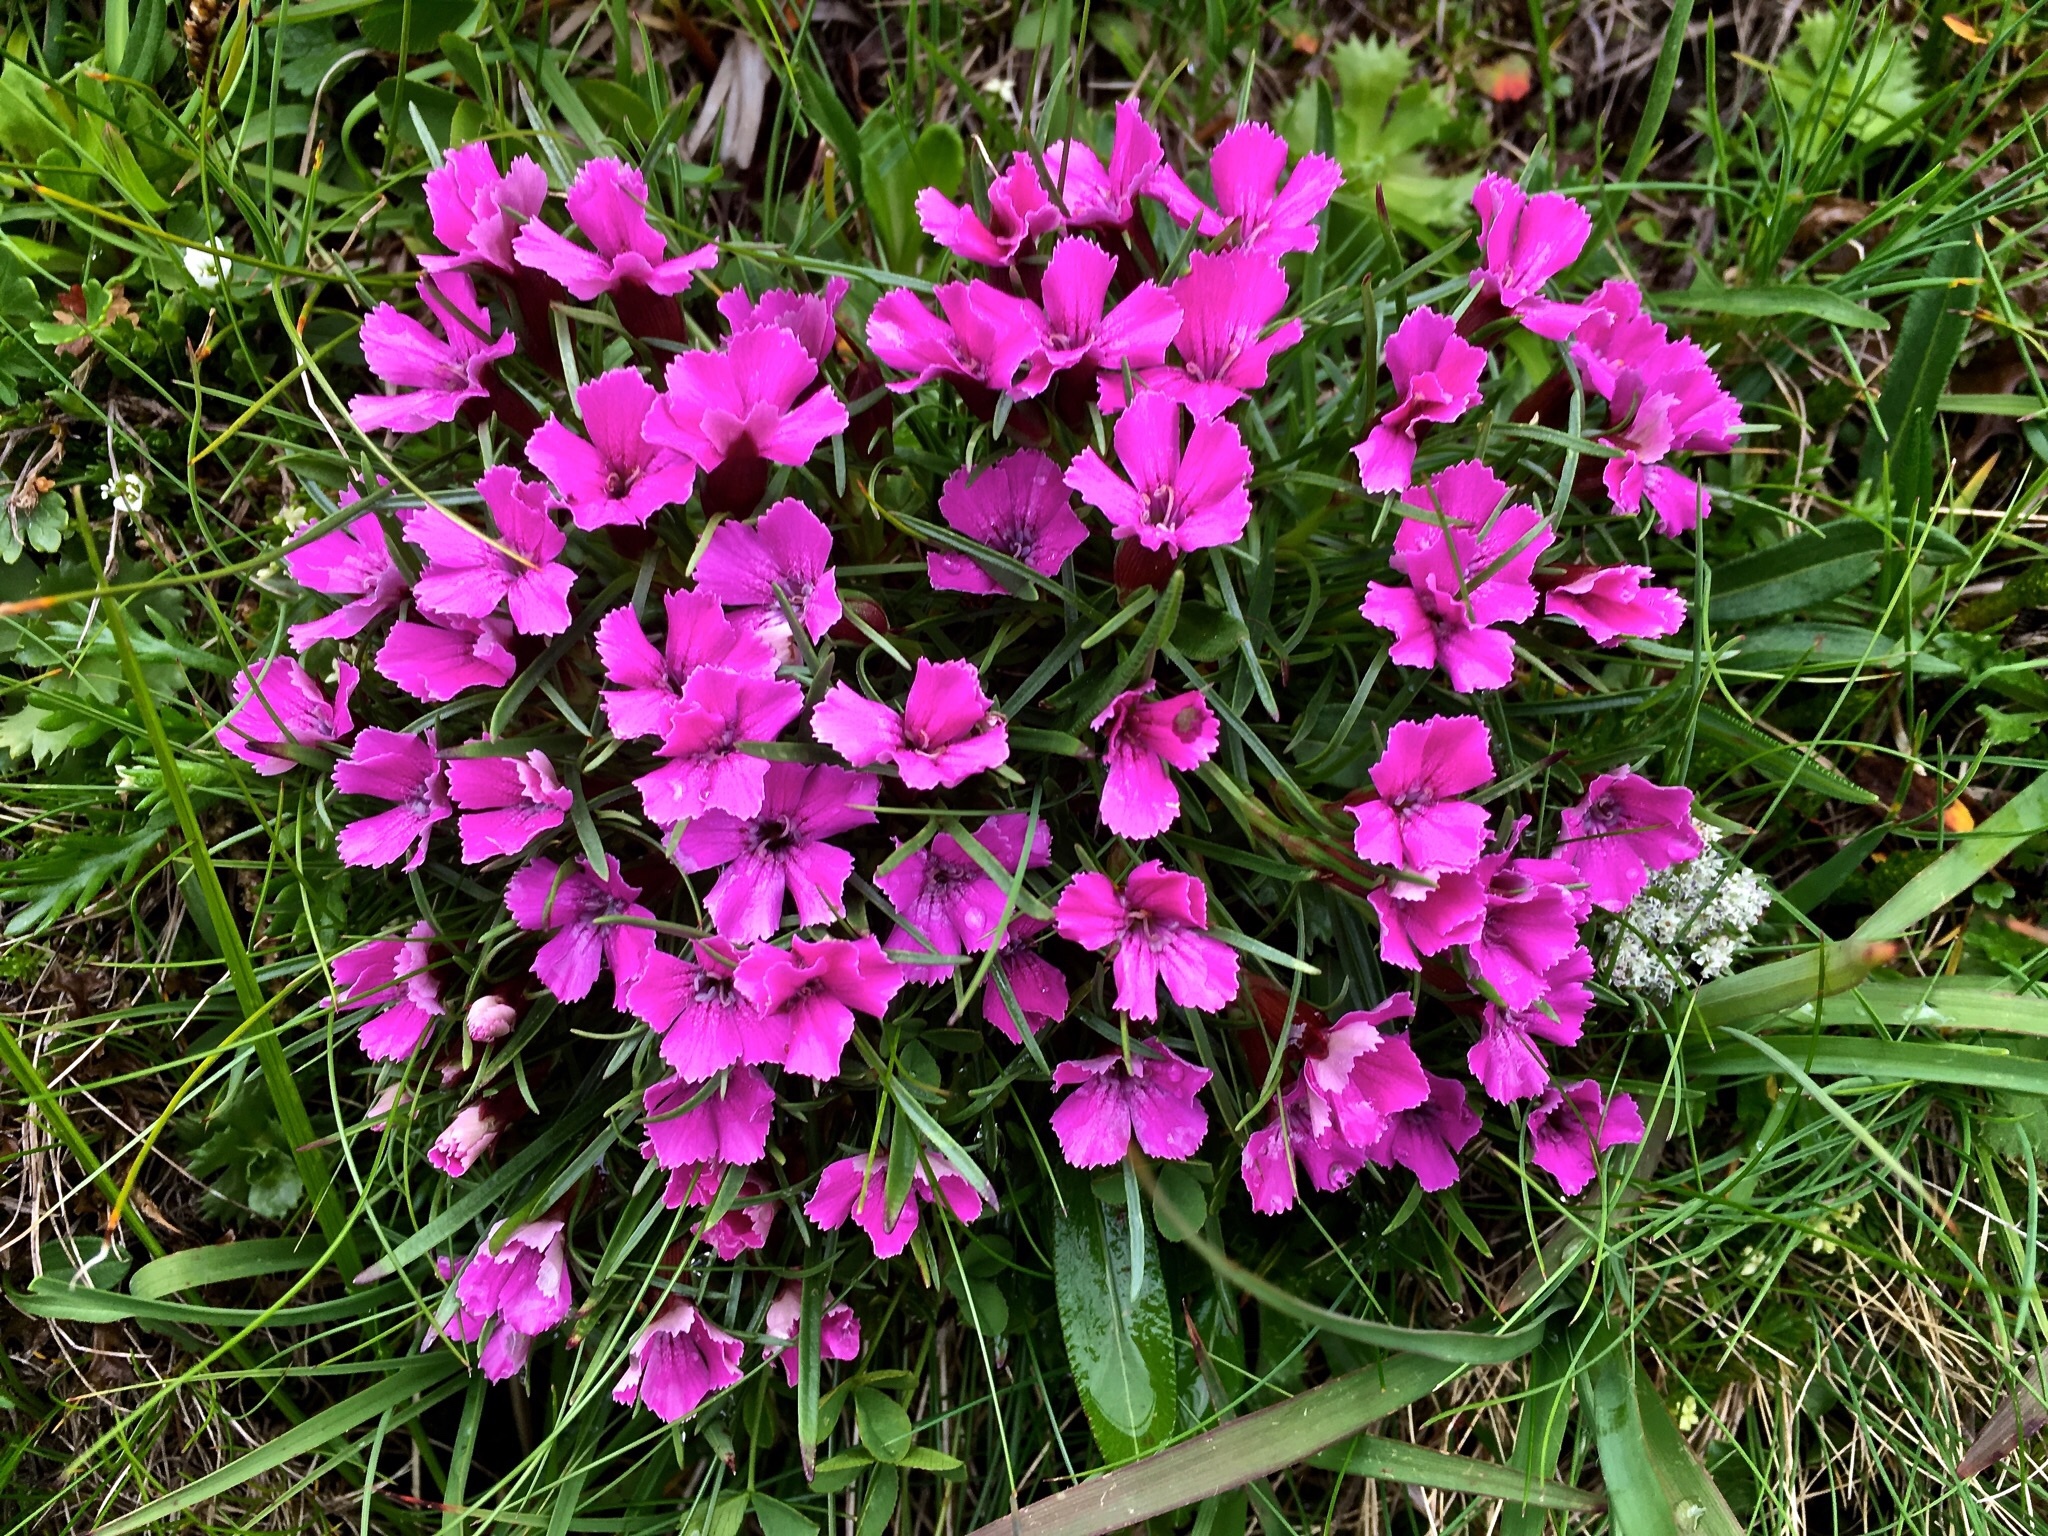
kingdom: Plantae
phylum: Tracheophyta
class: Magnoliopsida
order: Caryophyllales
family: Caryophyllaceae
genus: Dianthus
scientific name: Dianthus glacialis
